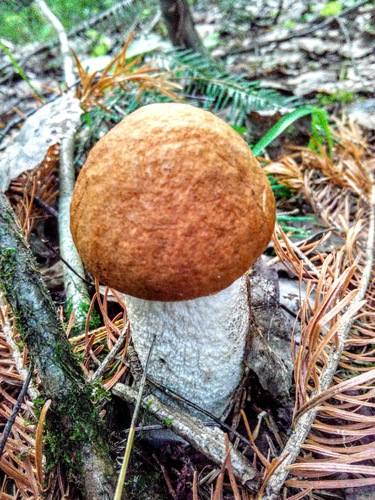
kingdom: Fungi
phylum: Basidiomycota
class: Agaricomycetes
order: Boletales
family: Boletaceae
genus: Leccinum
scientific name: Leccinum albostipitatum
